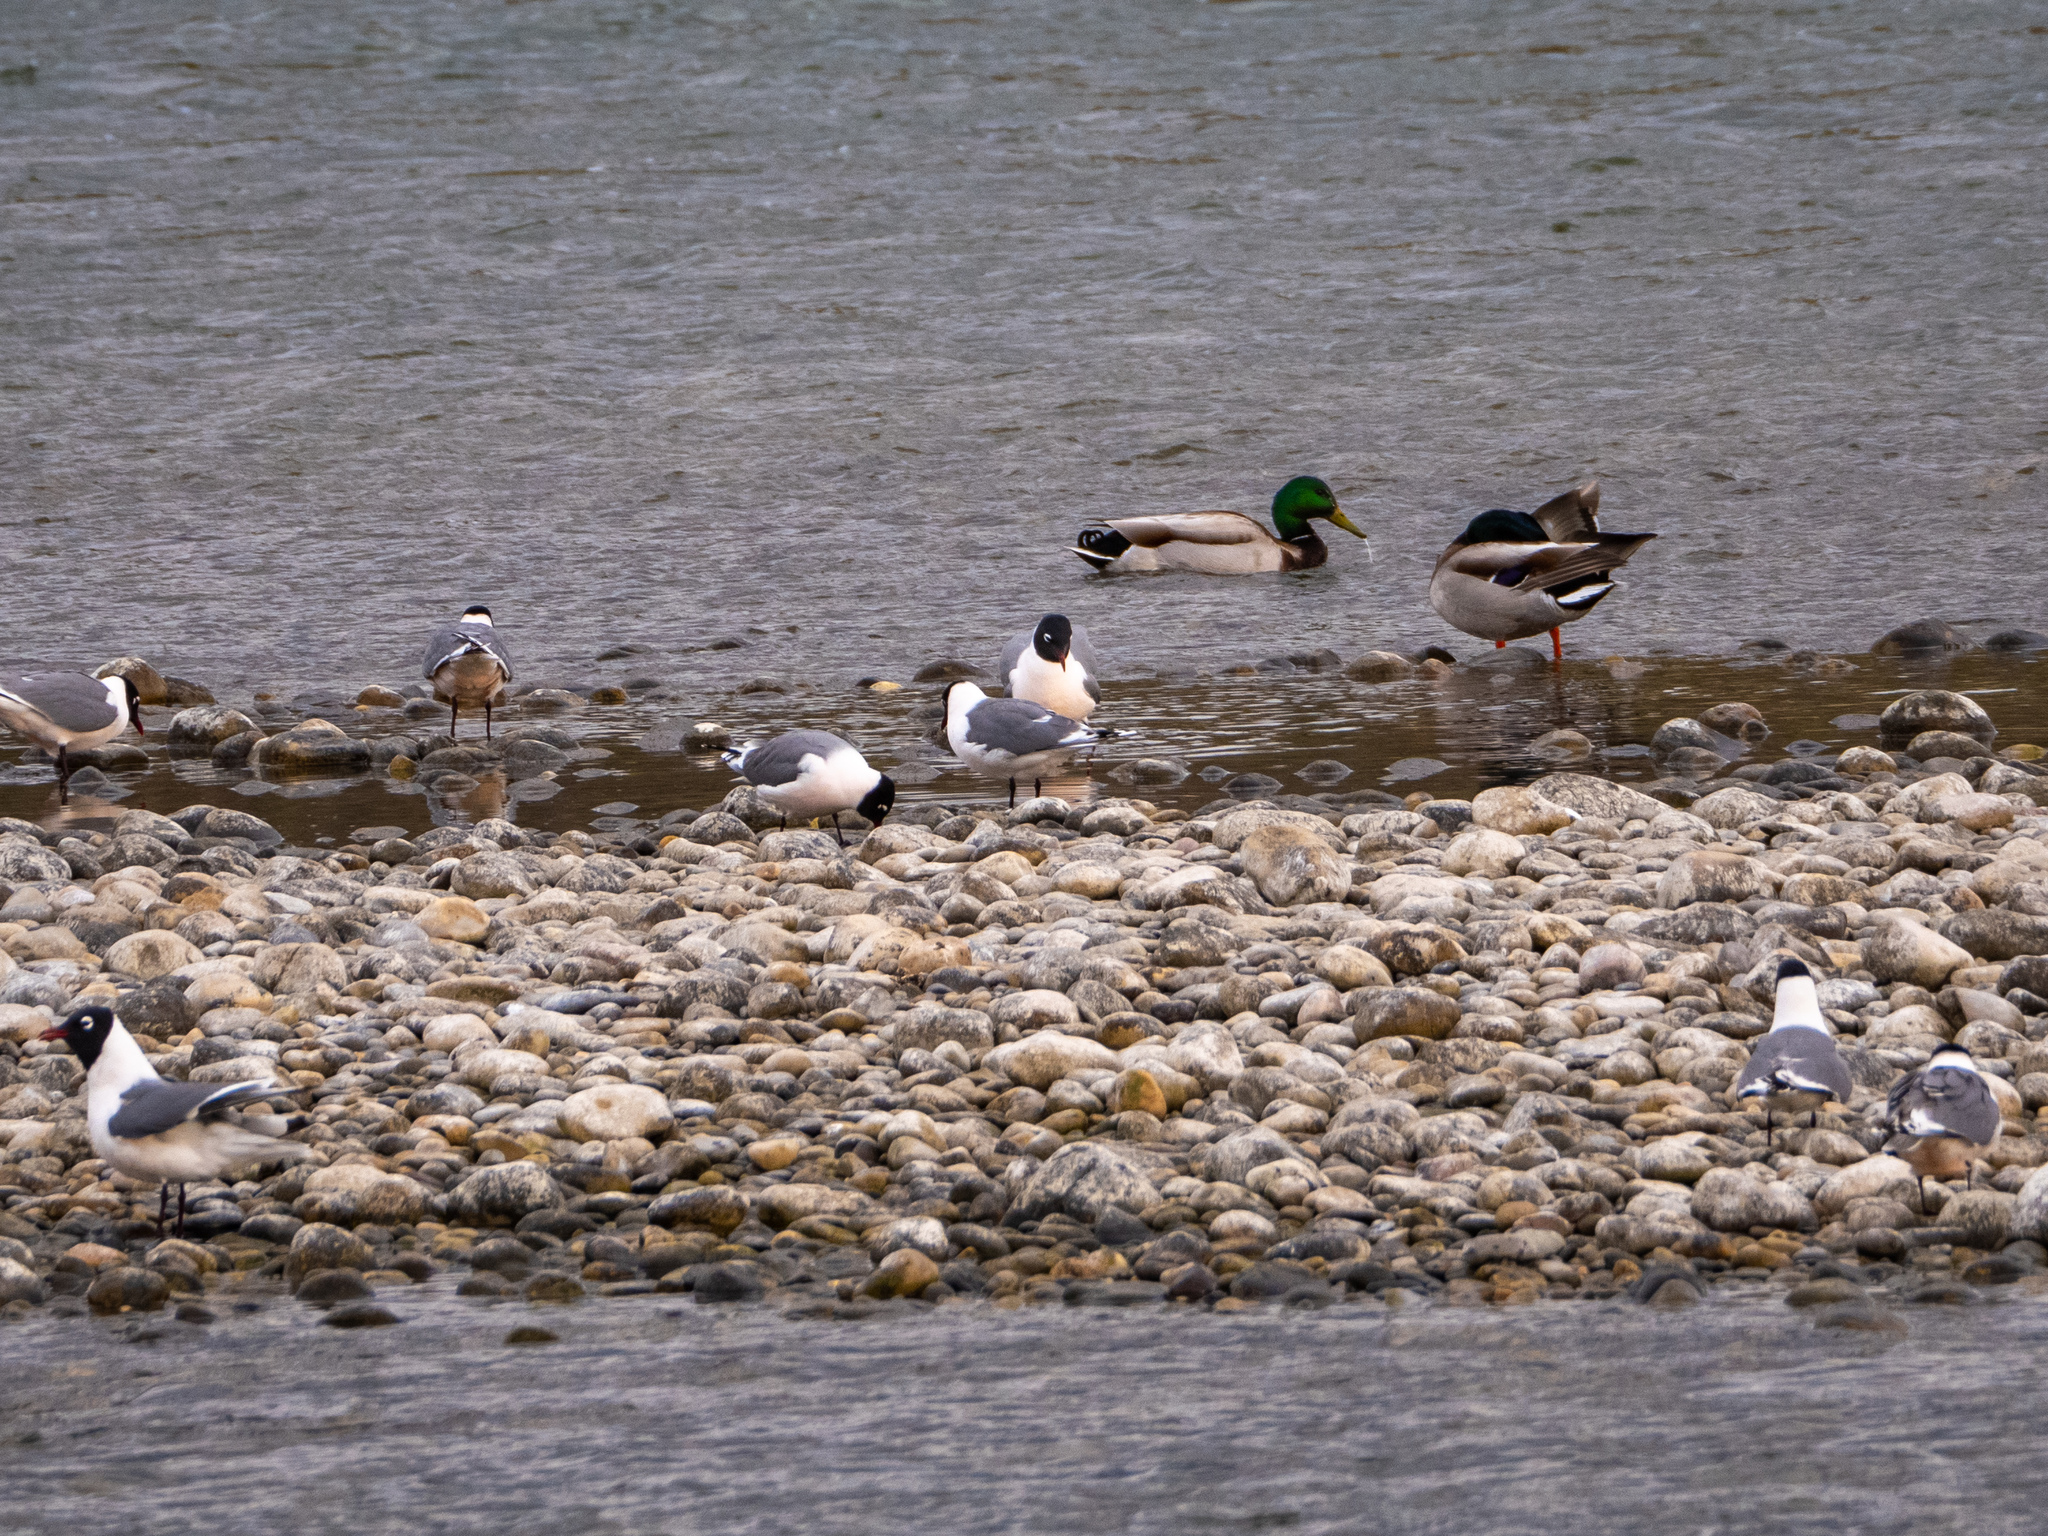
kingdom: Animalia
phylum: Chordata
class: Aves
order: Charadriiformes
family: Laridae
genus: Leucophaeus
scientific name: Leucophaeus pipixcan
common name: Franklin's gull
